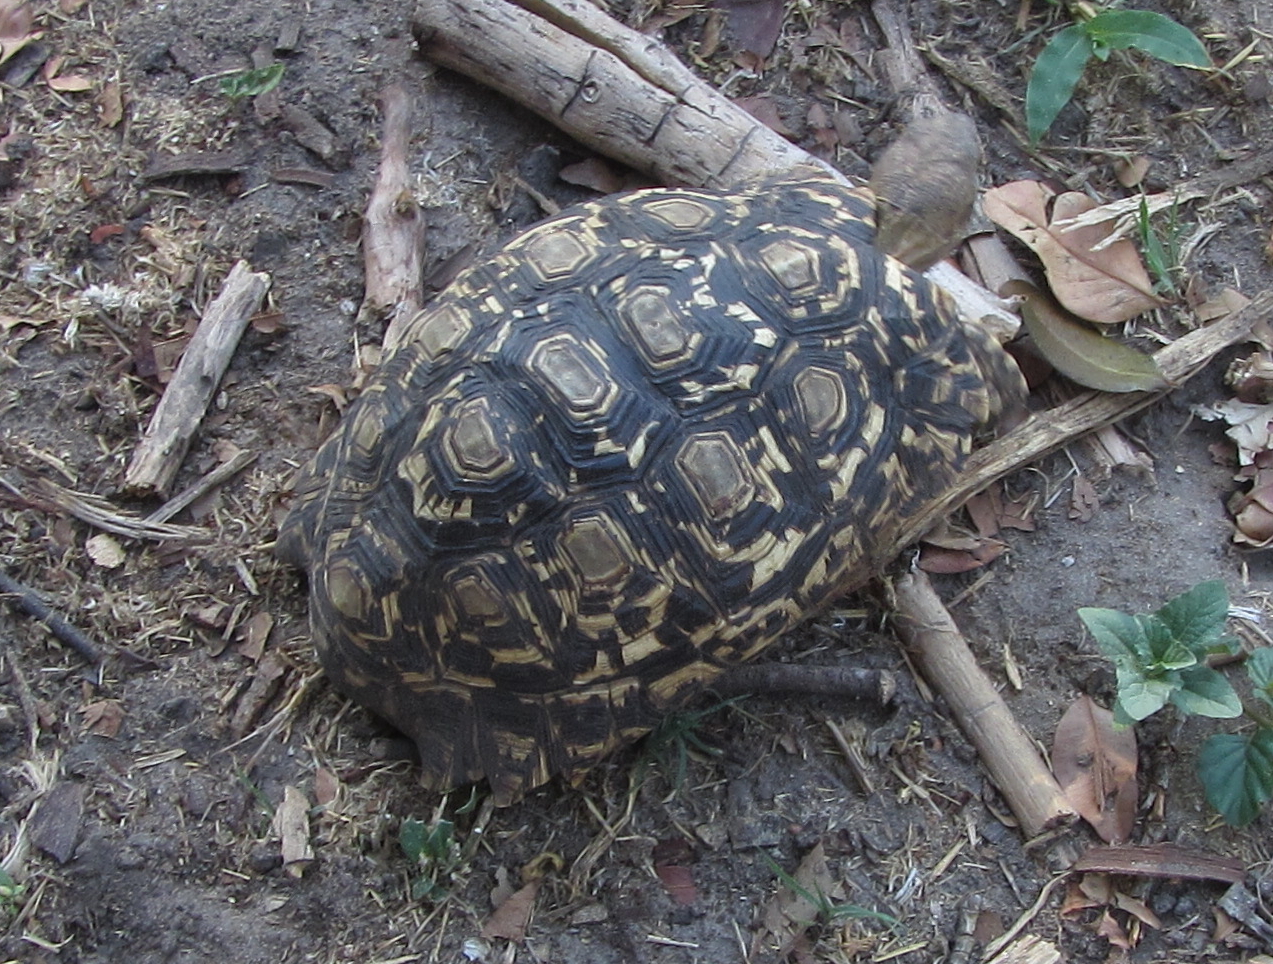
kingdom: Animalia
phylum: Chordata
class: Testudines
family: Testudinidae
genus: Stigmochelys
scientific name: Stigmochelys pardalis
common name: Leopard tortoise
